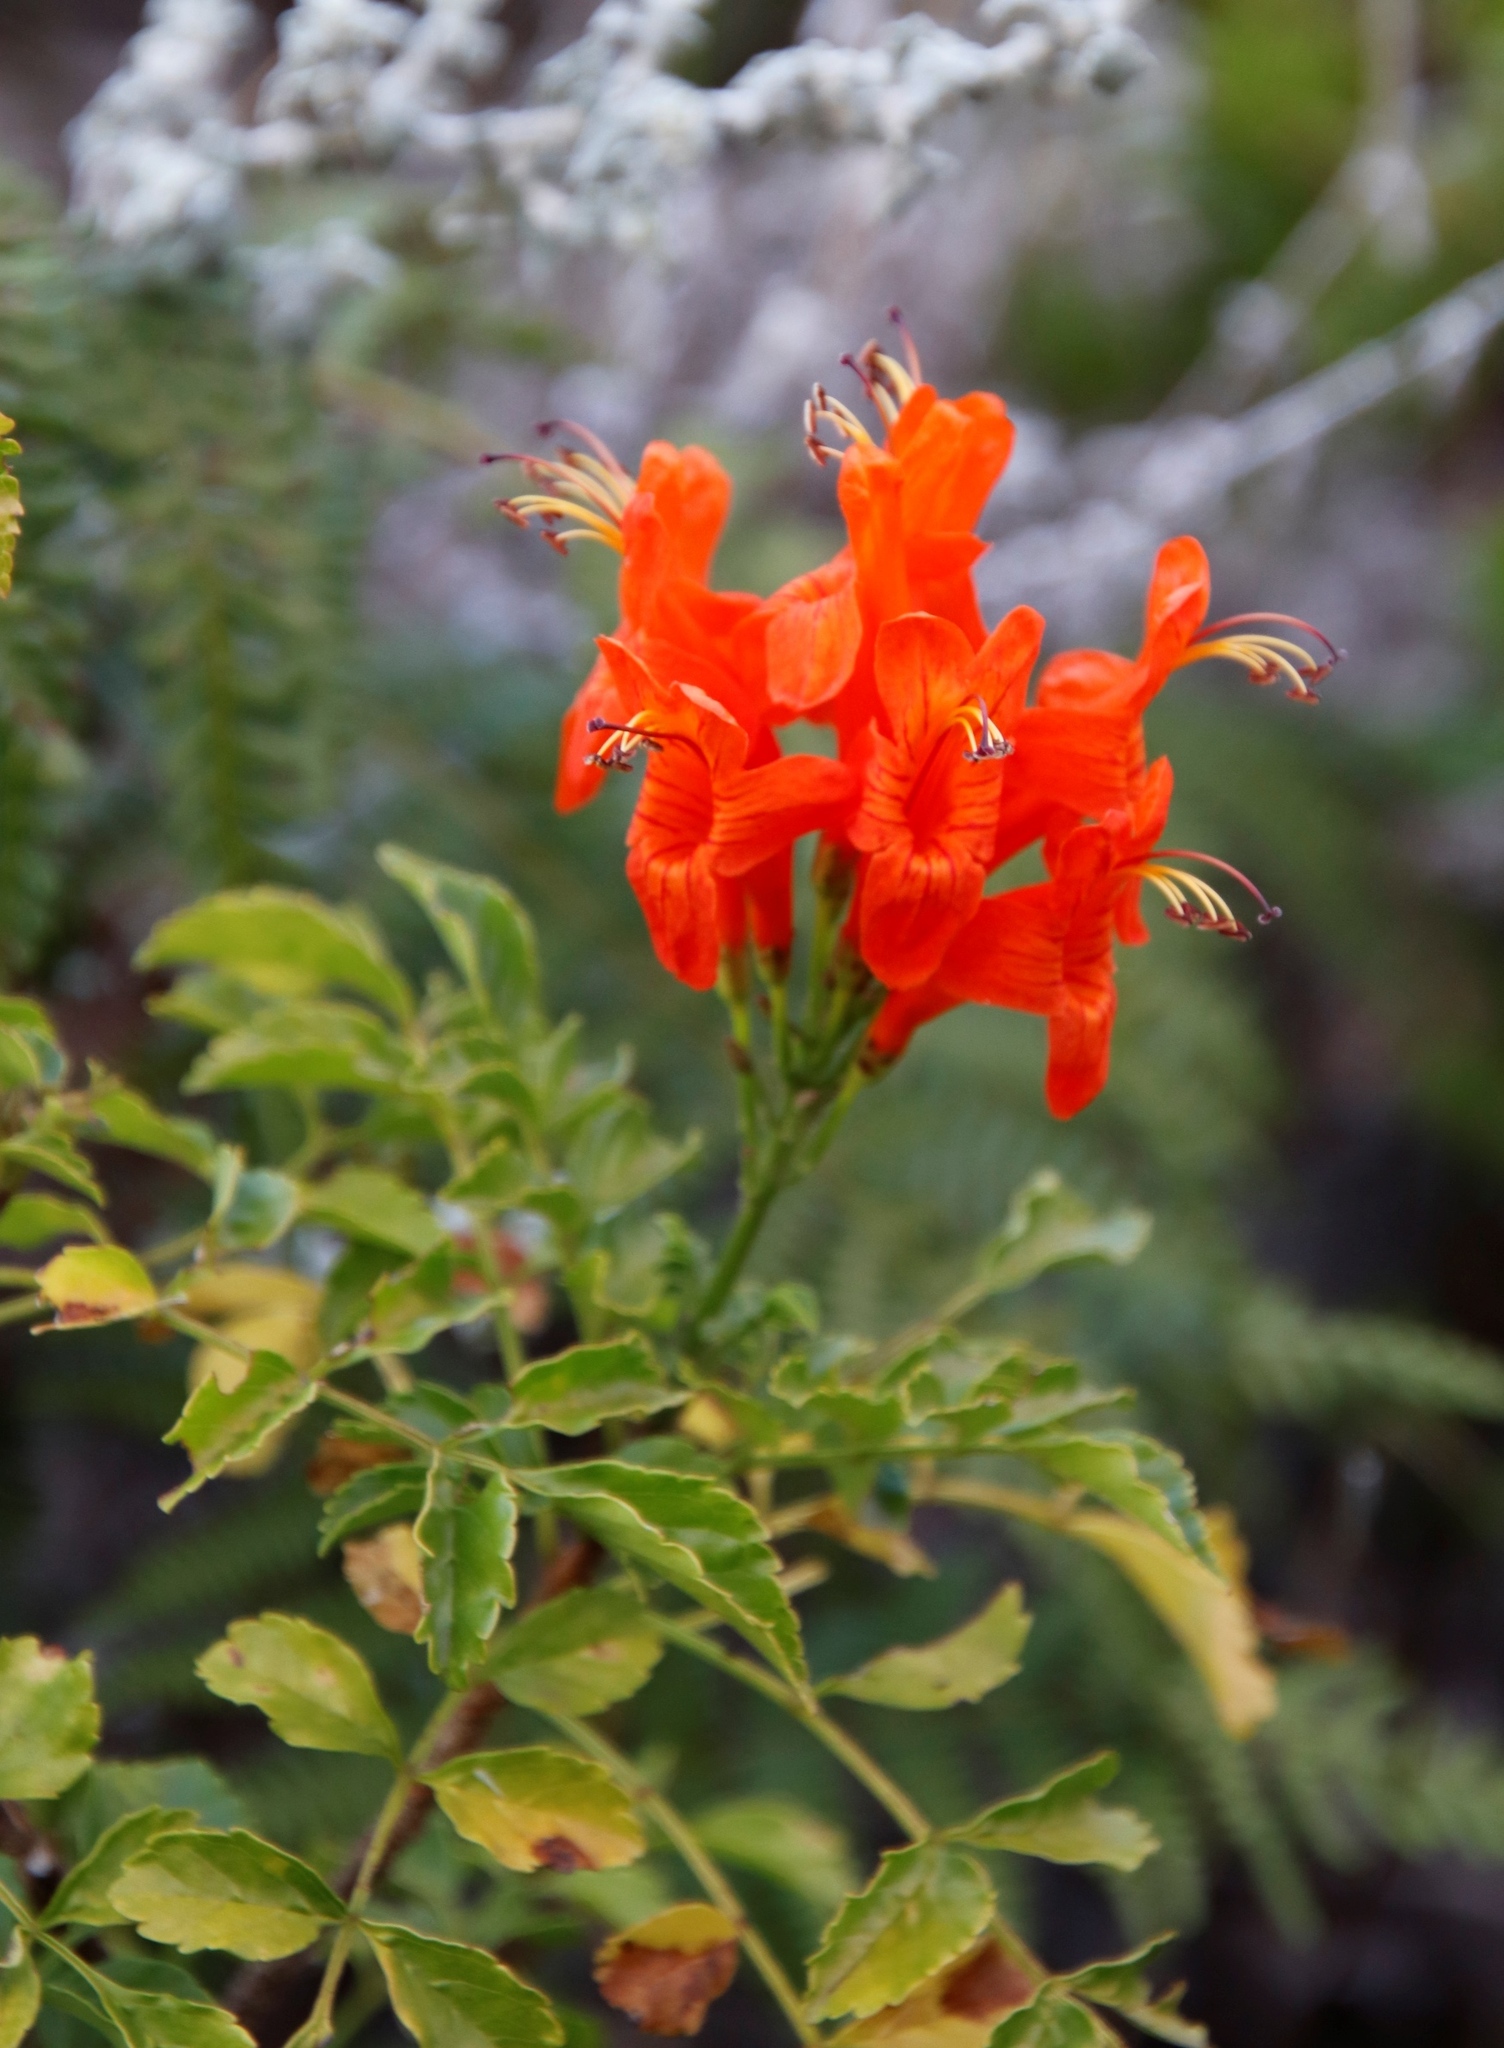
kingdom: Plantae
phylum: Tracheophyta
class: Magnoliopsida
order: Lamiales
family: Bignoniaceae
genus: Tecomaria
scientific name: Tecomaria capensis
